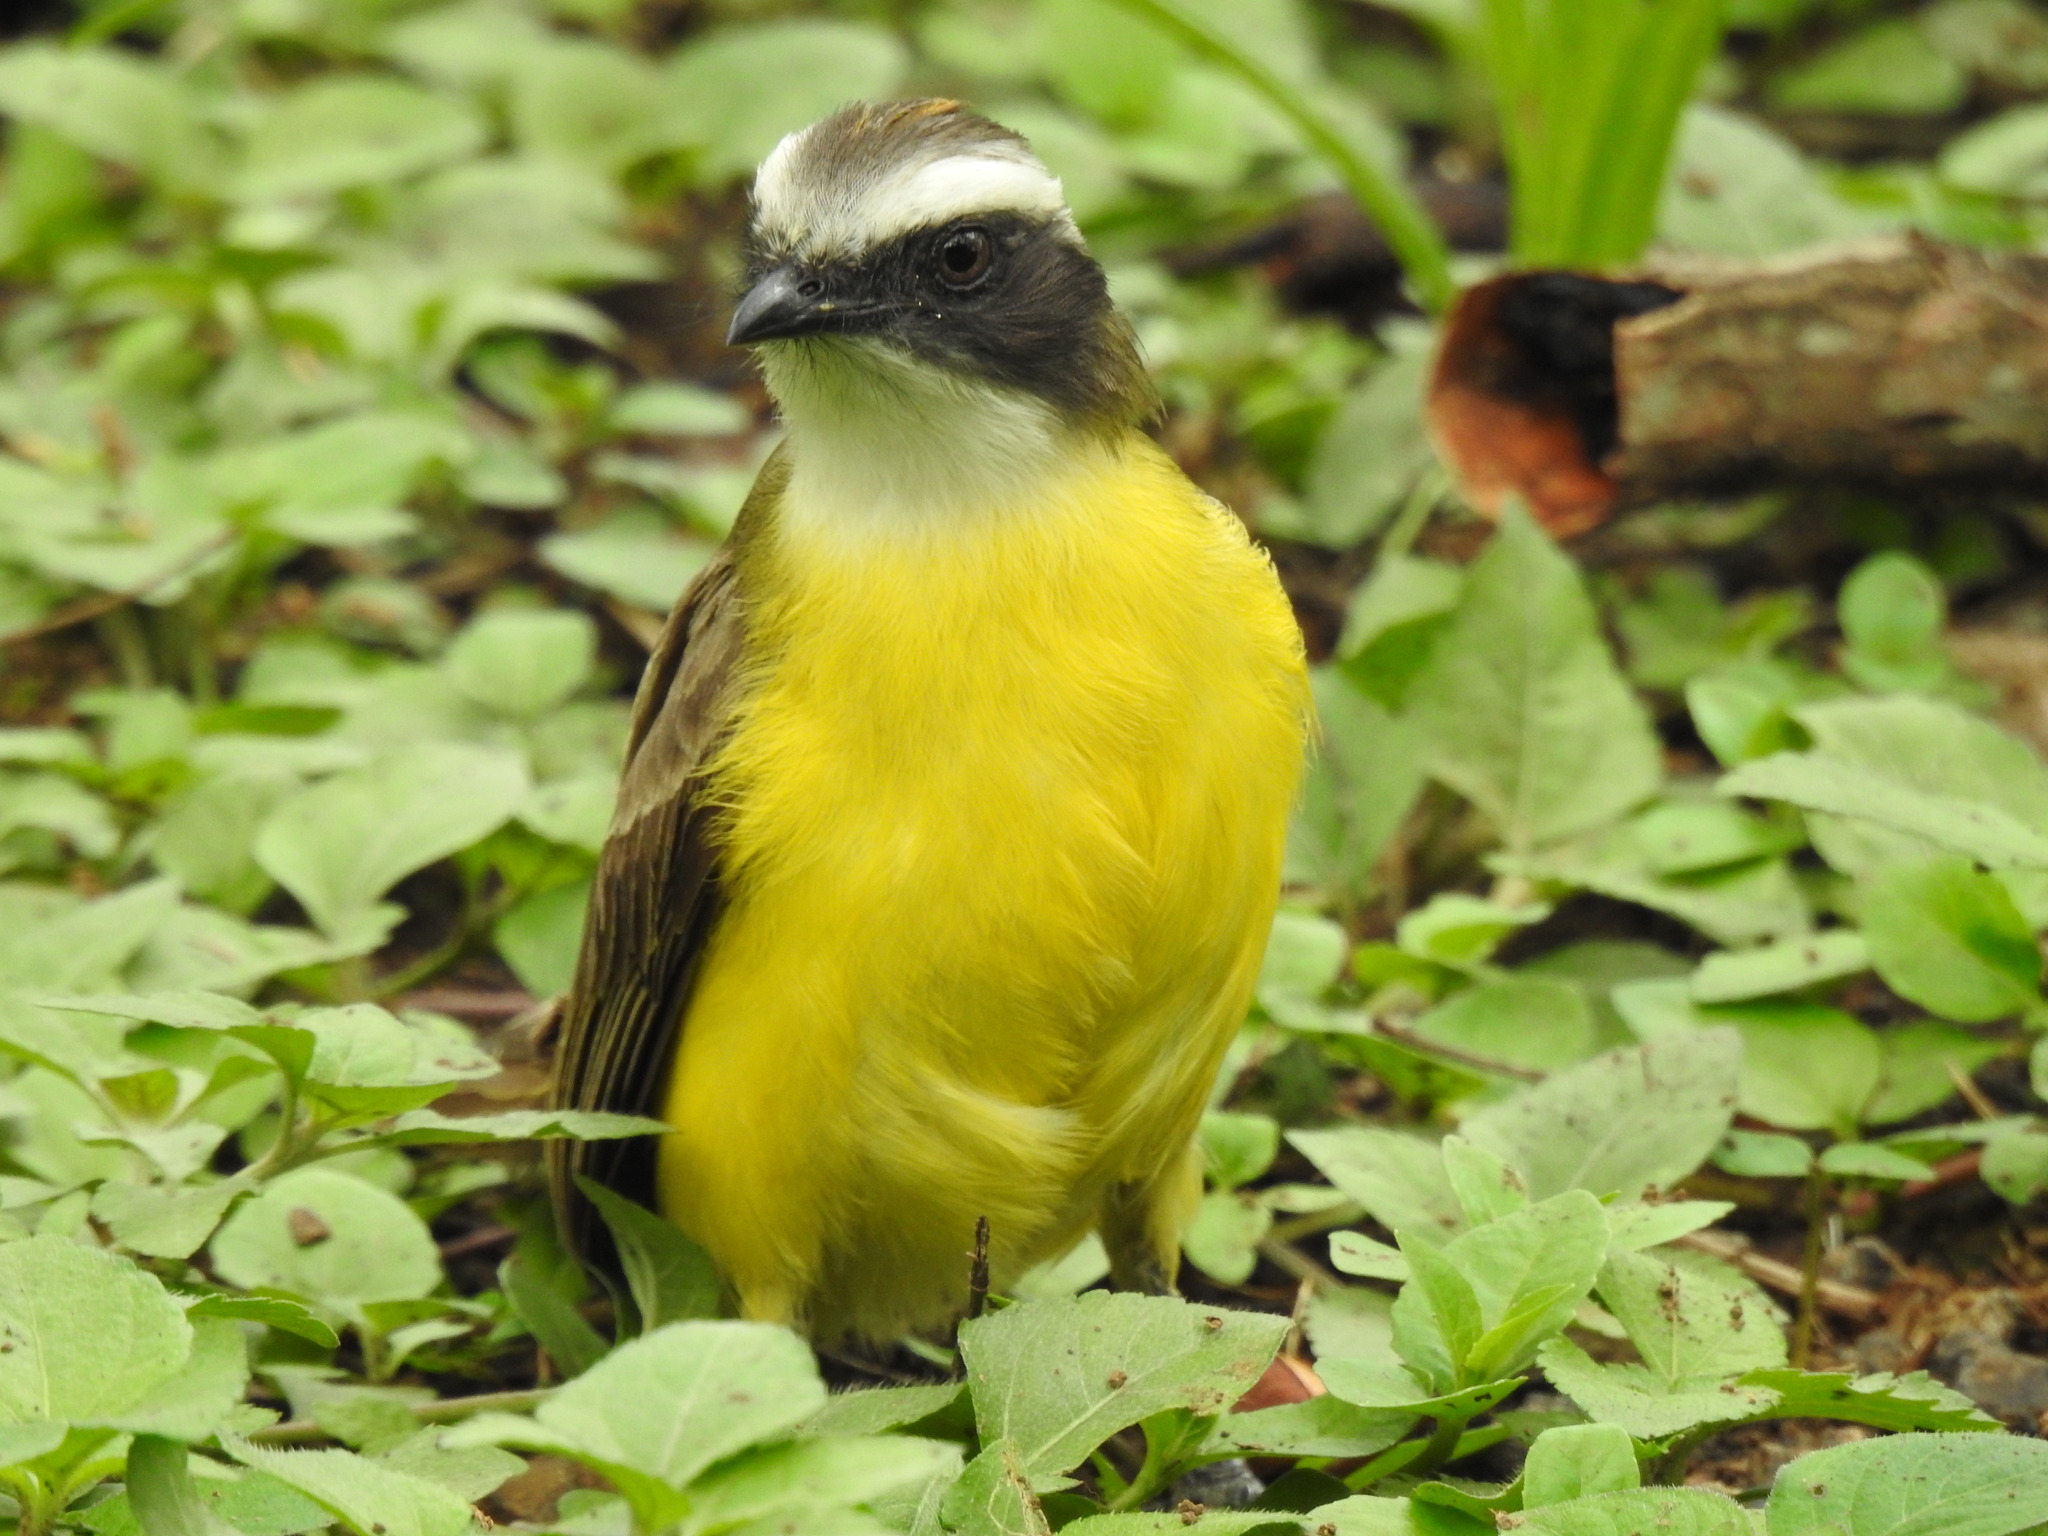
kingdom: Animalia
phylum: Chordata
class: Aves
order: Passeriformes
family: Tyrannidae
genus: Myiozetetes
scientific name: Myiozetetes similis
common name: Social flycatcher
